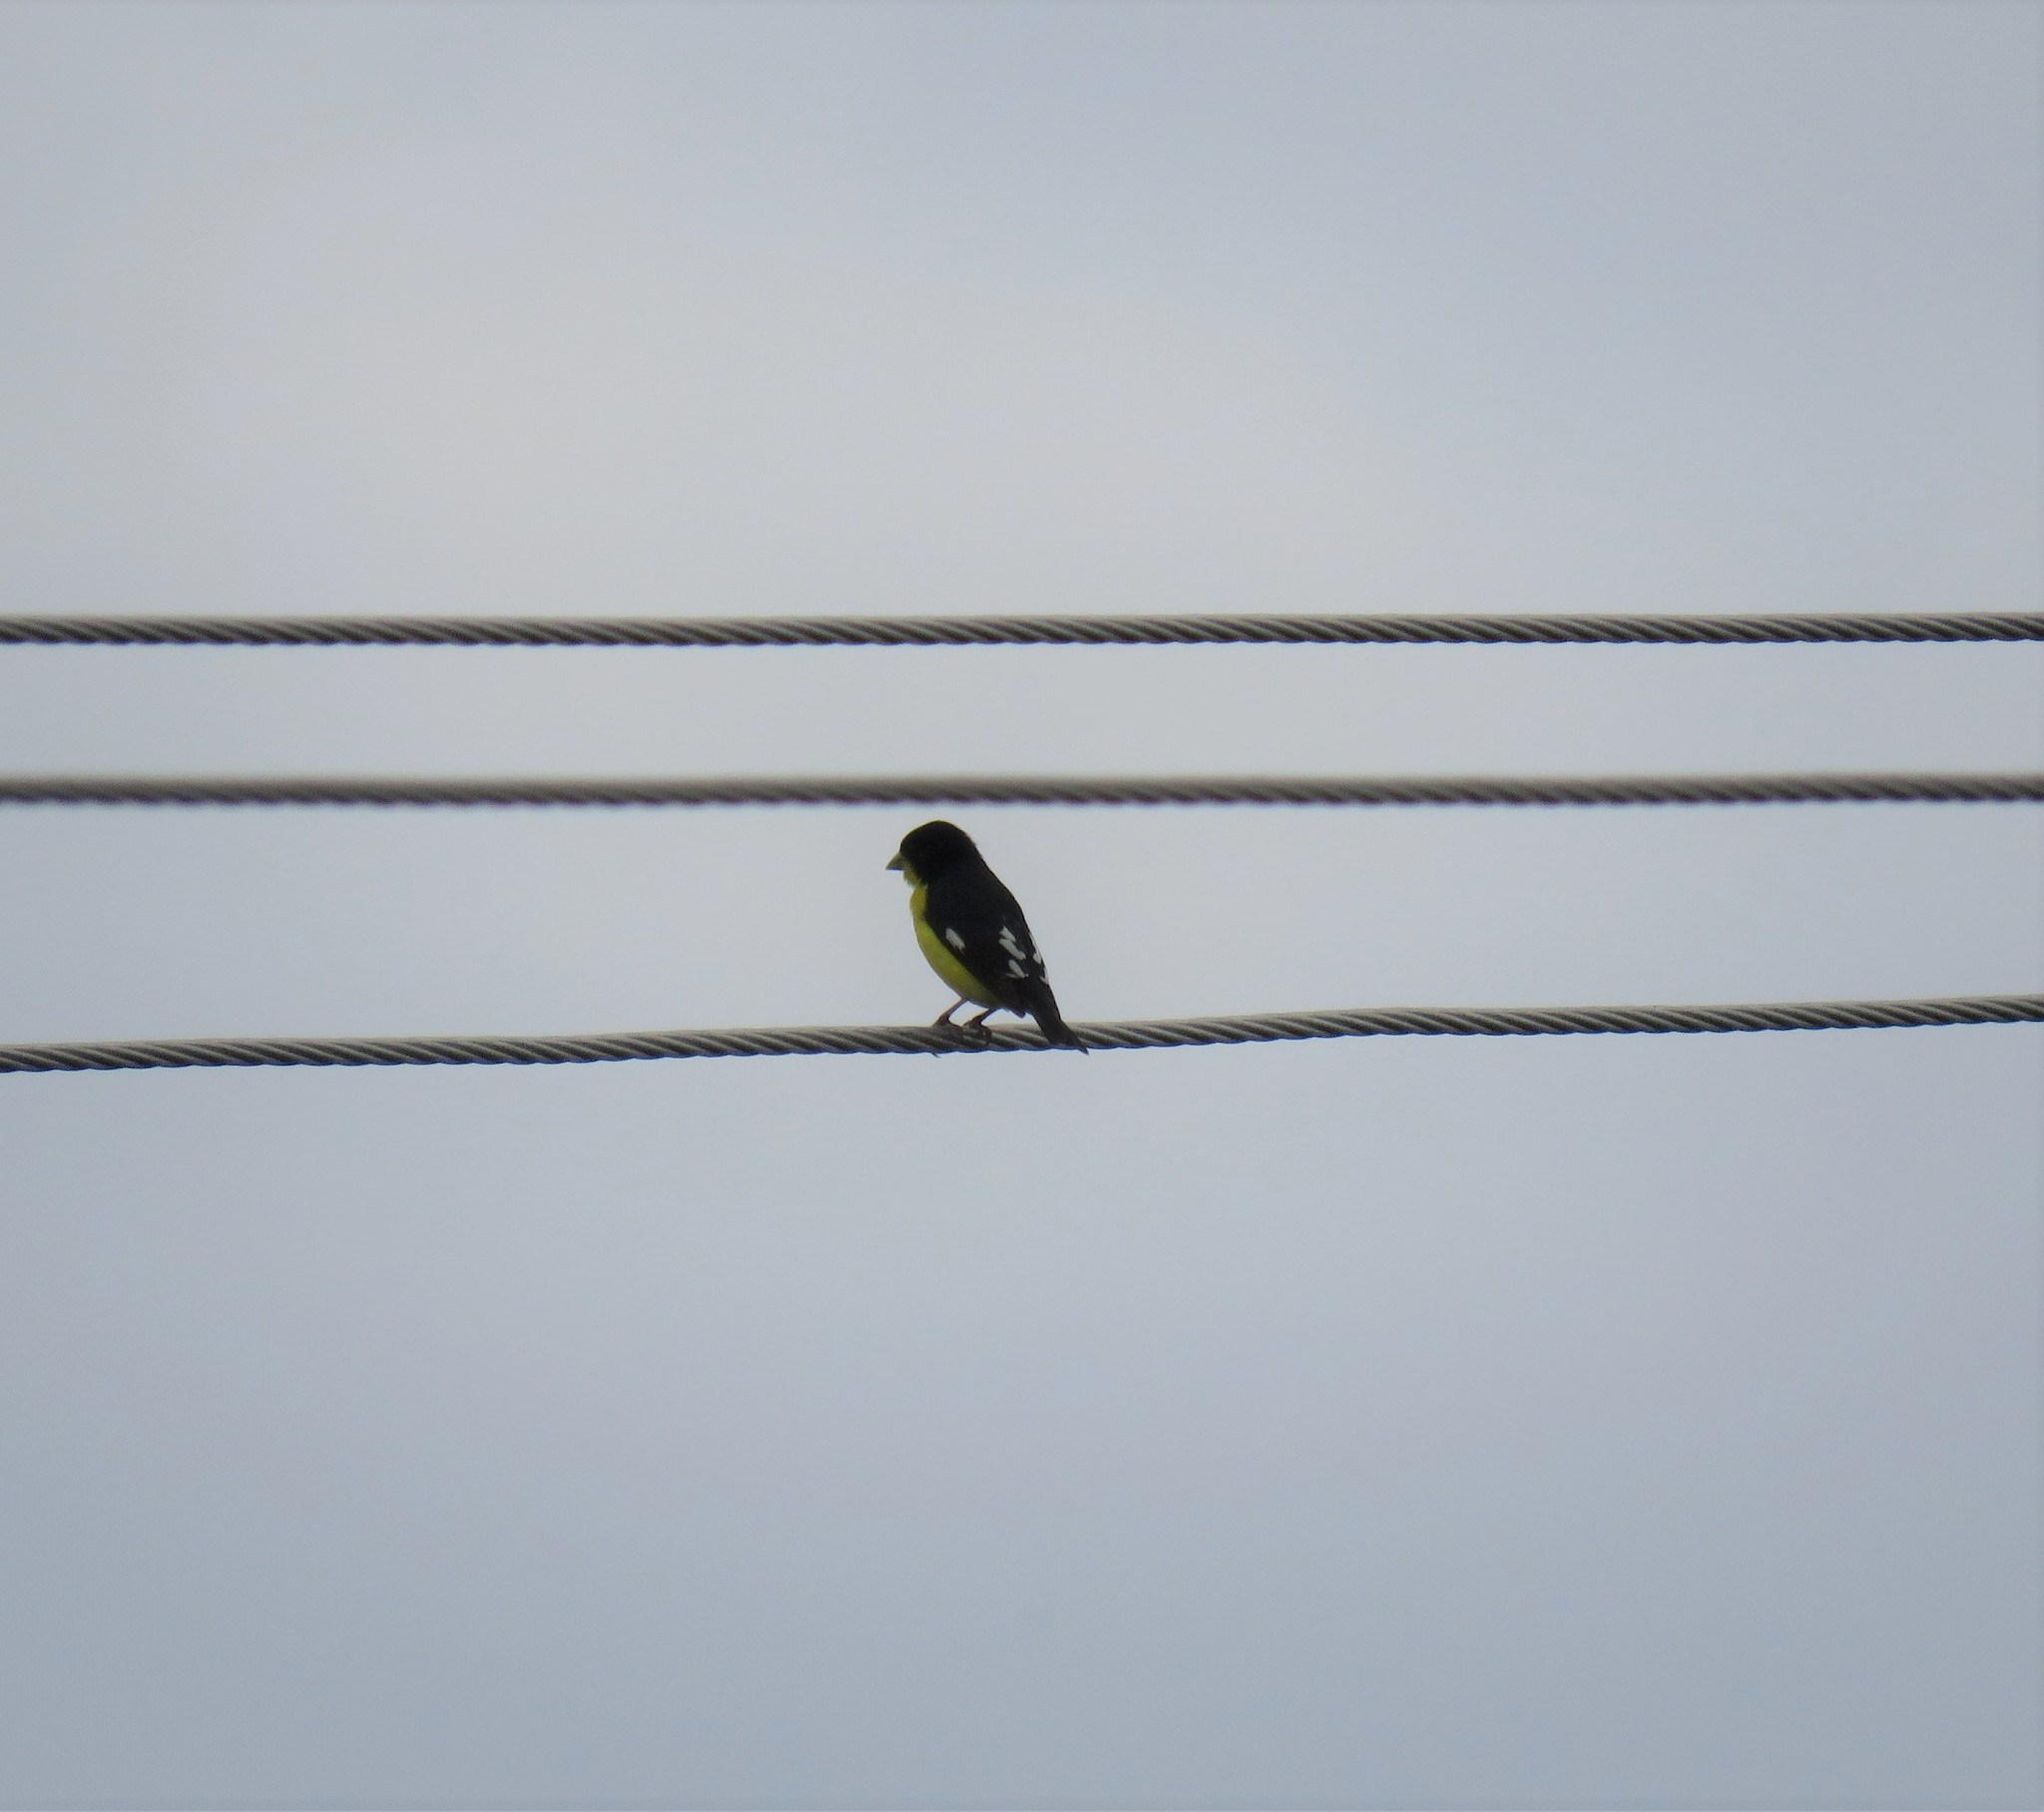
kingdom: Animalia
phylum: Chordata
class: Aves
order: Passeriformes
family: Fringillidae
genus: Spinus
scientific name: Spinus psaltria
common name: Lesser goldfinch
